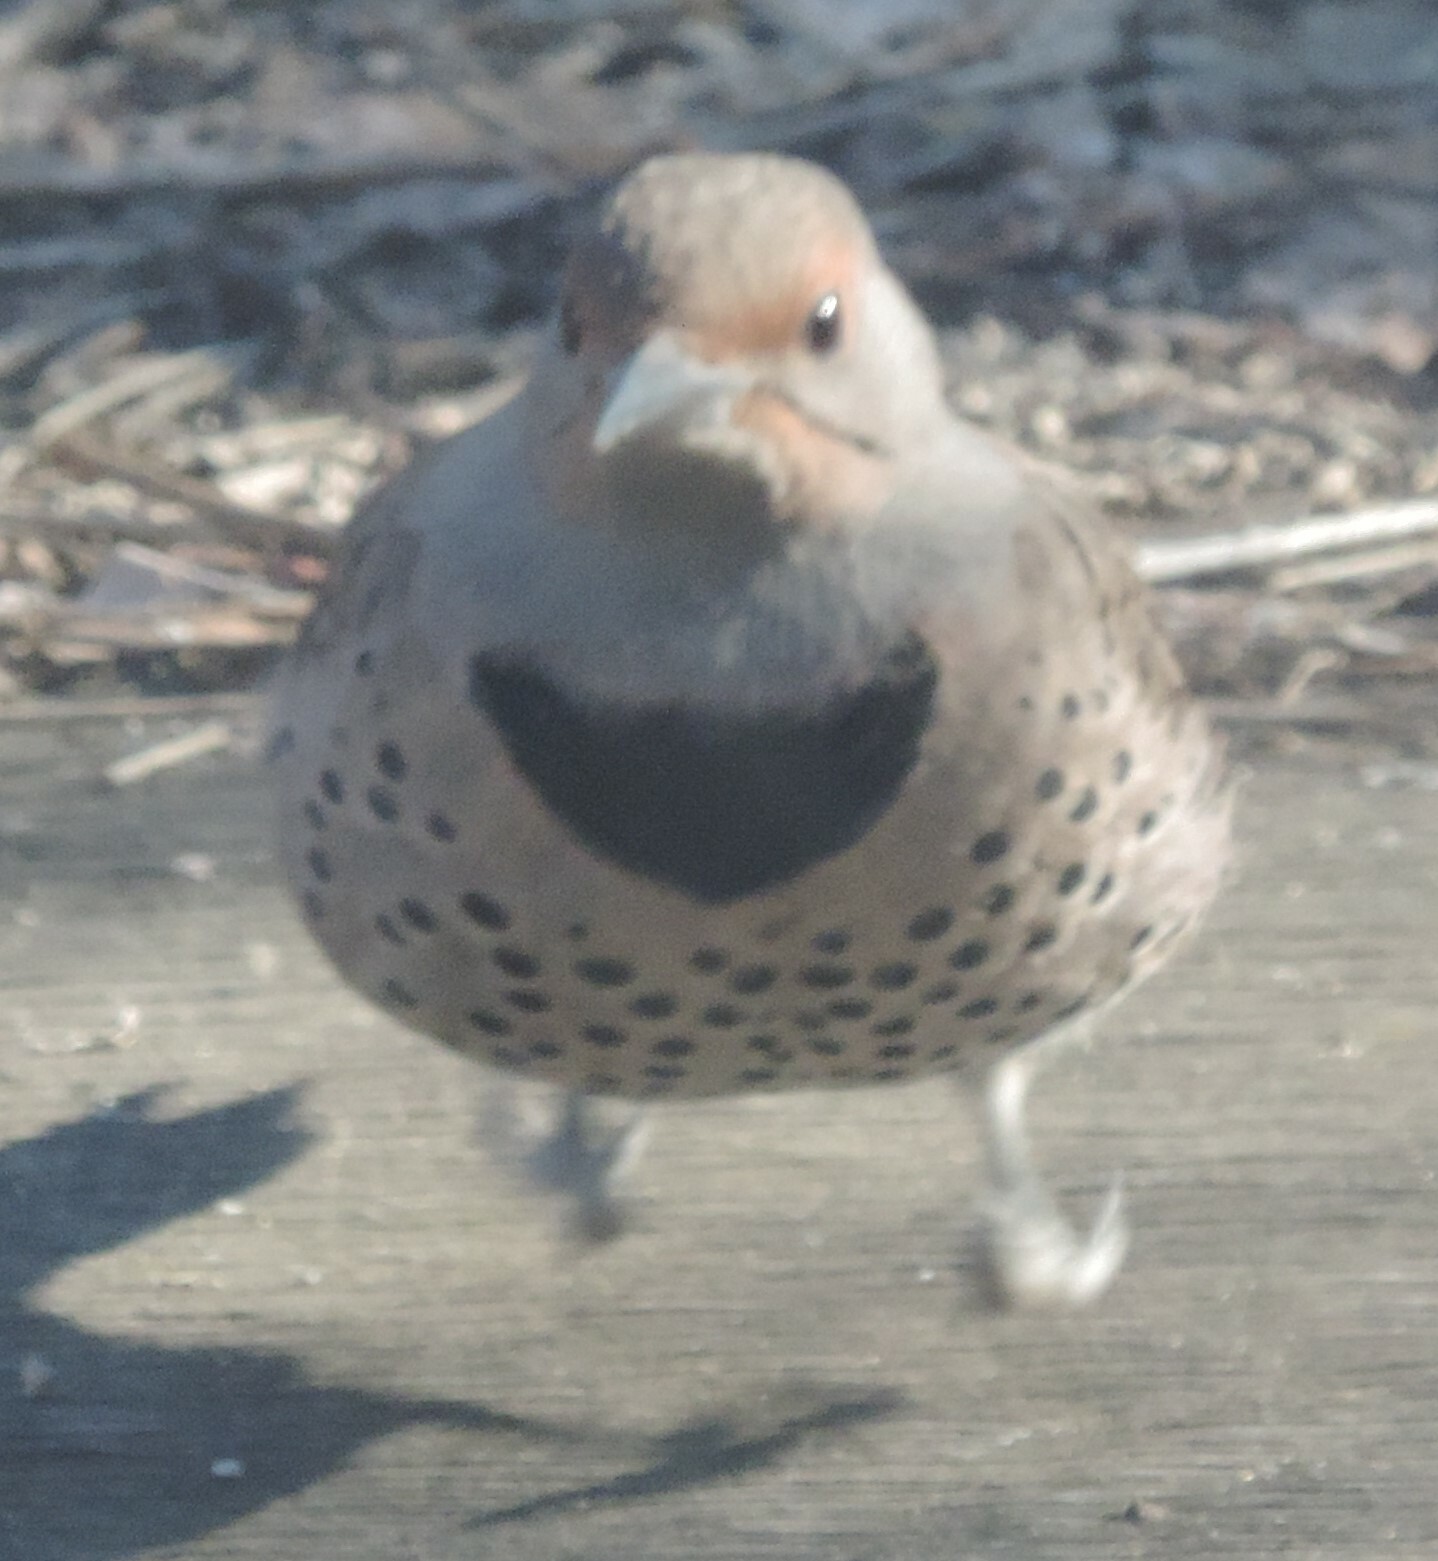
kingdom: Animalia
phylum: Chordata
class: Aves
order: Piciformes
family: Picidae
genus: Colaptes
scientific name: Colaptes auratus
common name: Northern flicker
